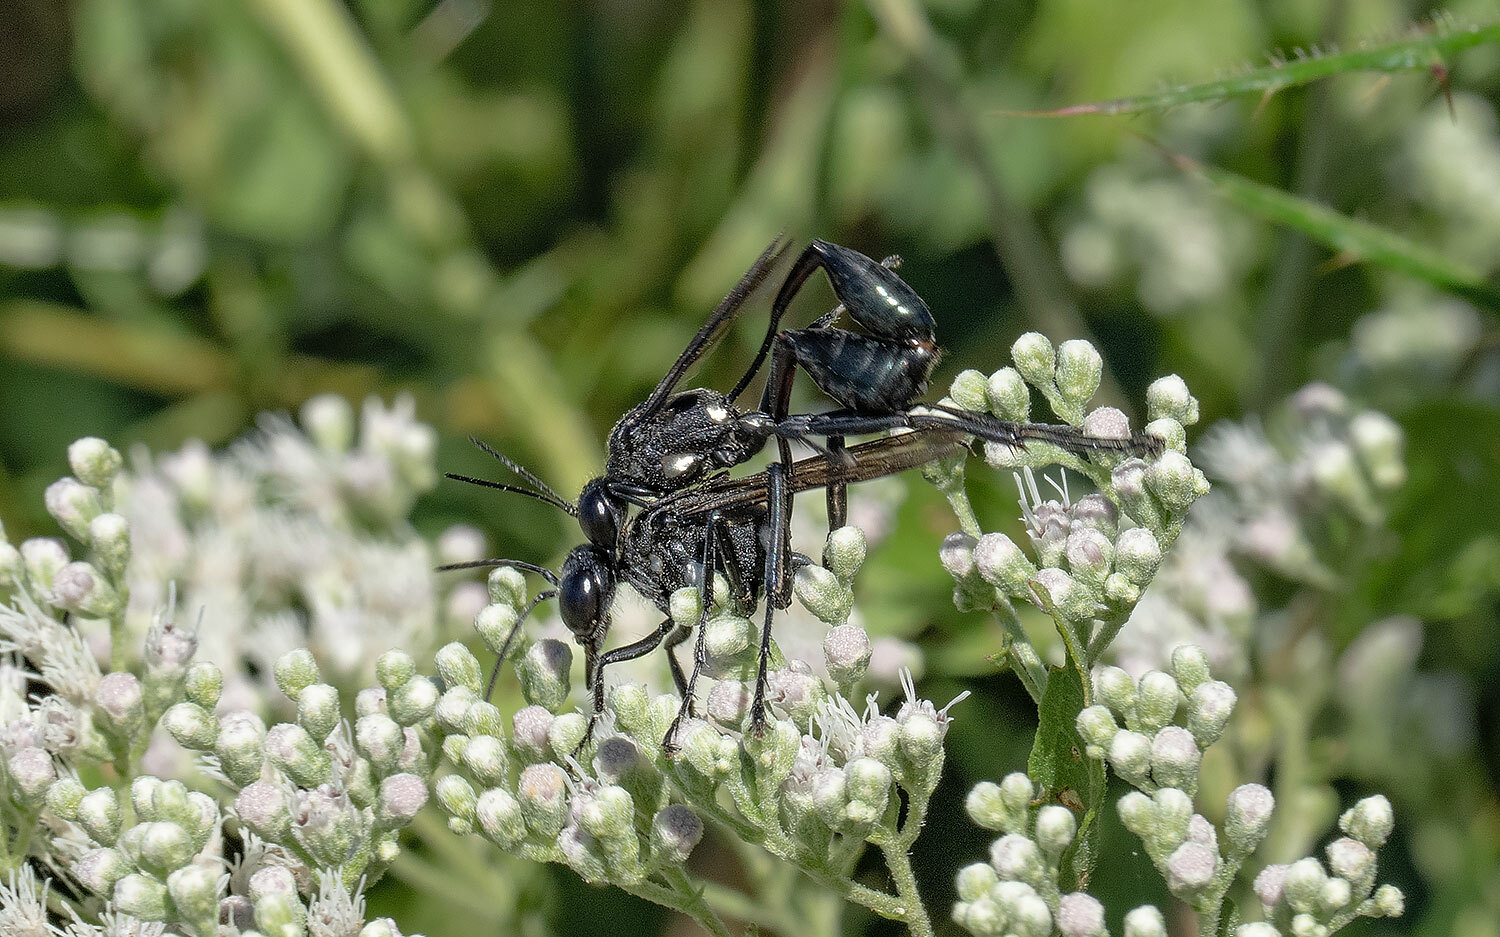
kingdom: Animalia
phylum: Arthropoda
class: Insecta
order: Hymenoptera
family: Sphecidae
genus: Eremnophila
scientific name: Eremnophila aureonotata
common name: Gold-marked thread-waisted wasp
